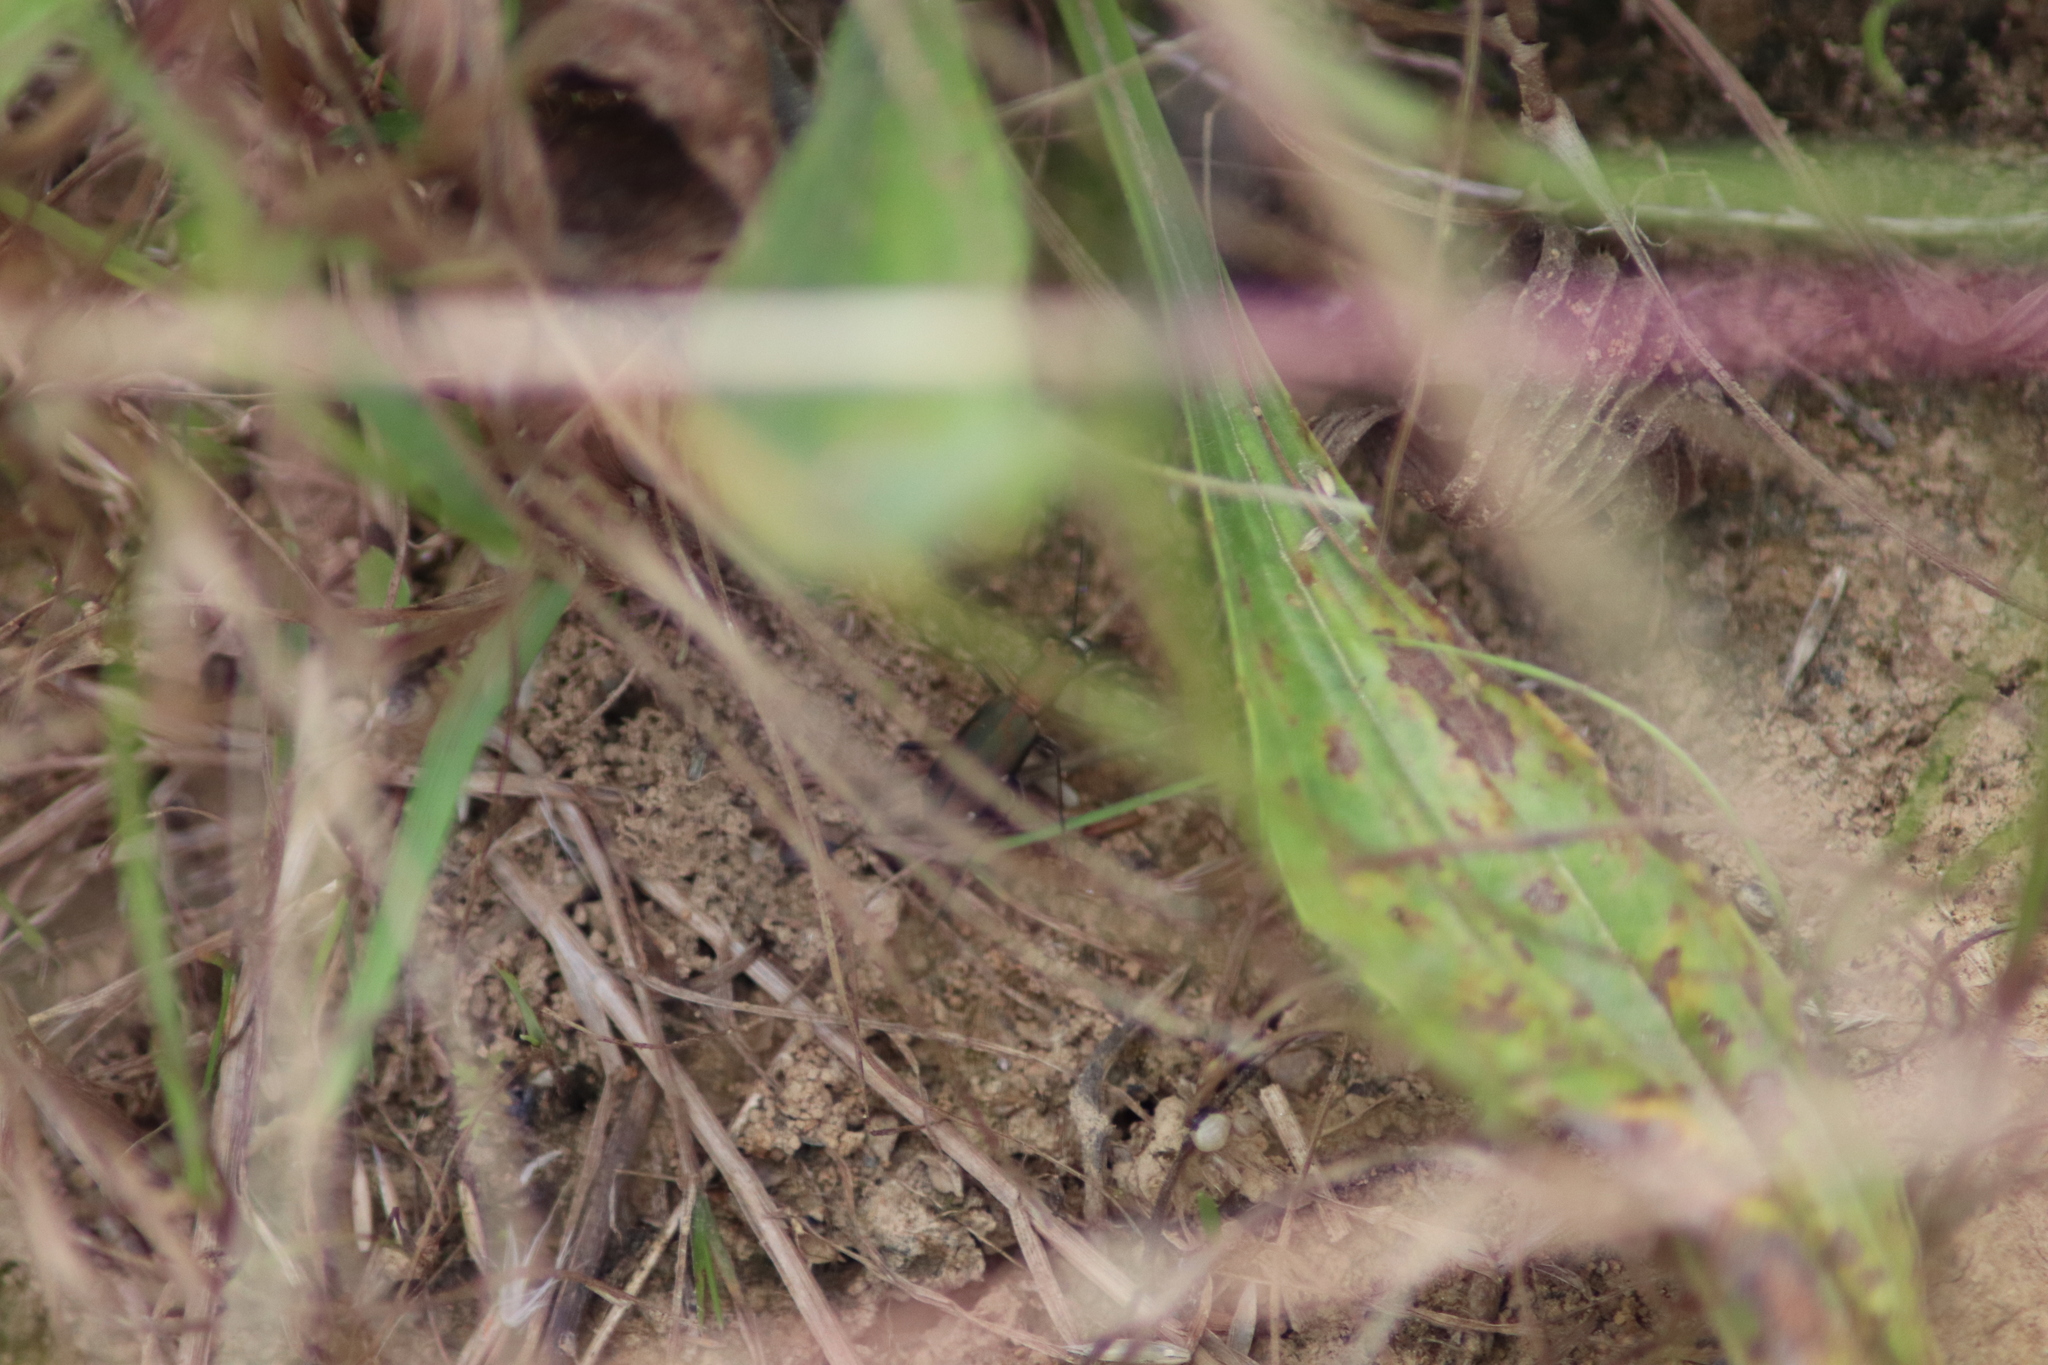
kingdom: Animalia
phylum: Arthropoda
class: Insecta
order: Coleoptera
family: Carabidae
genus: Cylindera
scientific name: Cylindera germanica
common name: Cliff tiger beetle
